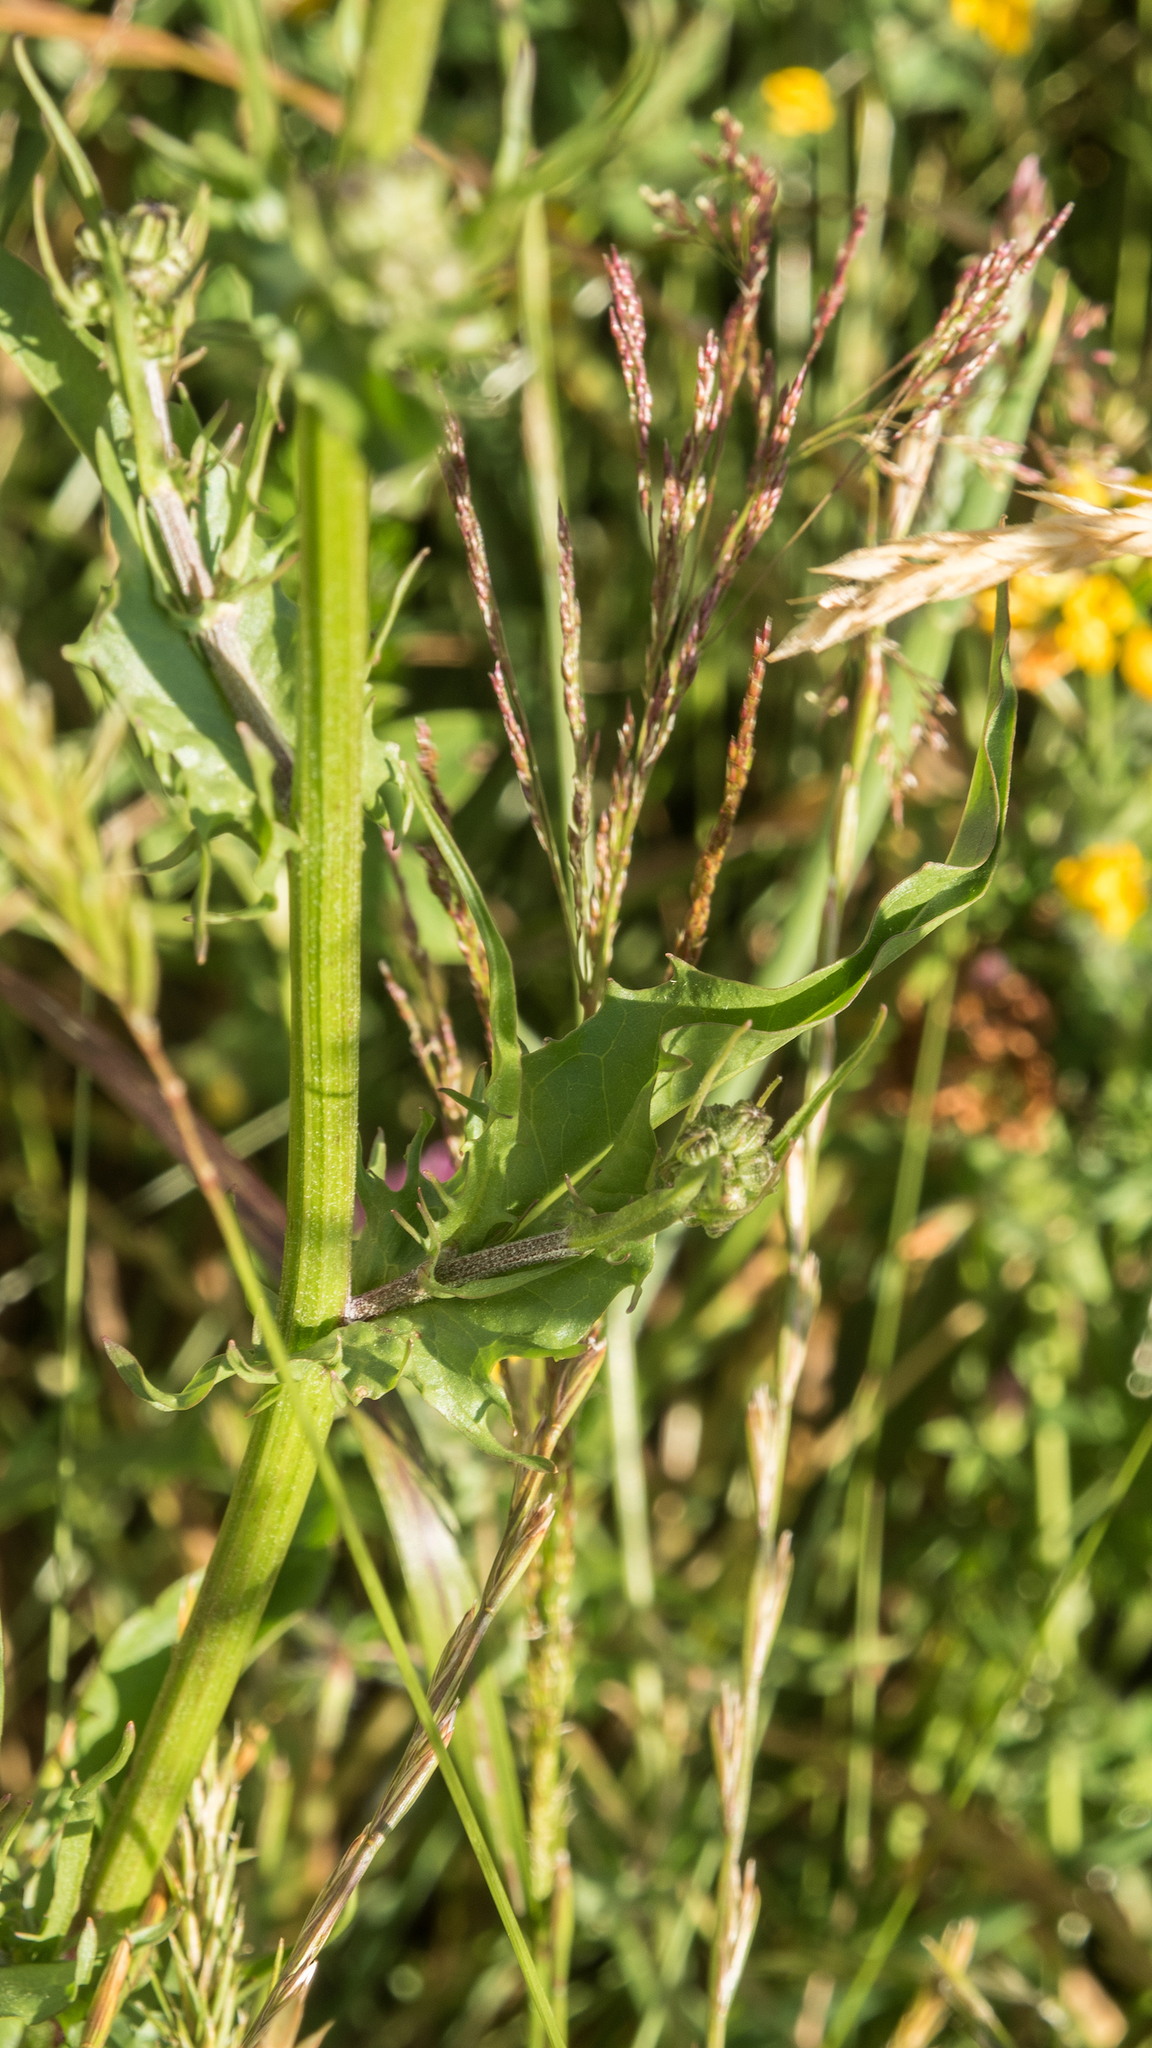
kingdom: Plantae
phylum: Tracheophyta
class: Magnoliopsida
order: Asterales
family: Asteraceae
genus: Crepis
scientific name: Crepis capillaris
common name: Smooth hawksbeard
